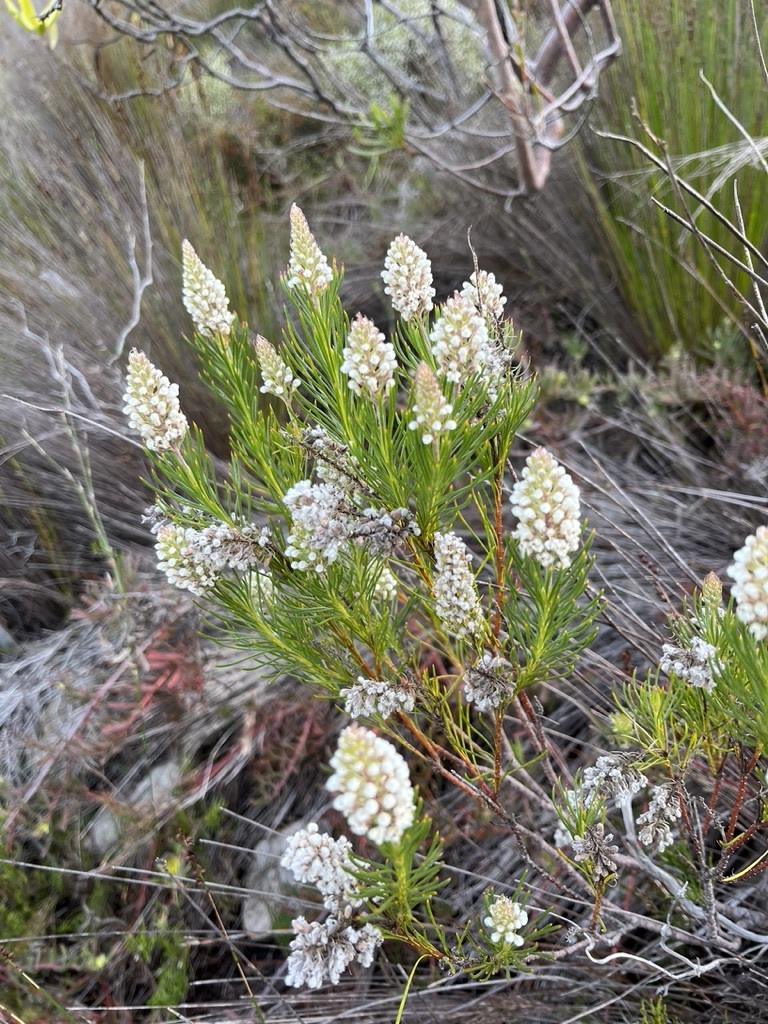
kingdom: Plantae
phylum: Tracheophyta
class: Magnoliopsida
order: Proteales
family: Proteaceae
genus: Spatalla
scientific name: Spatalla curvifolia
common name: White-stalked spoon
